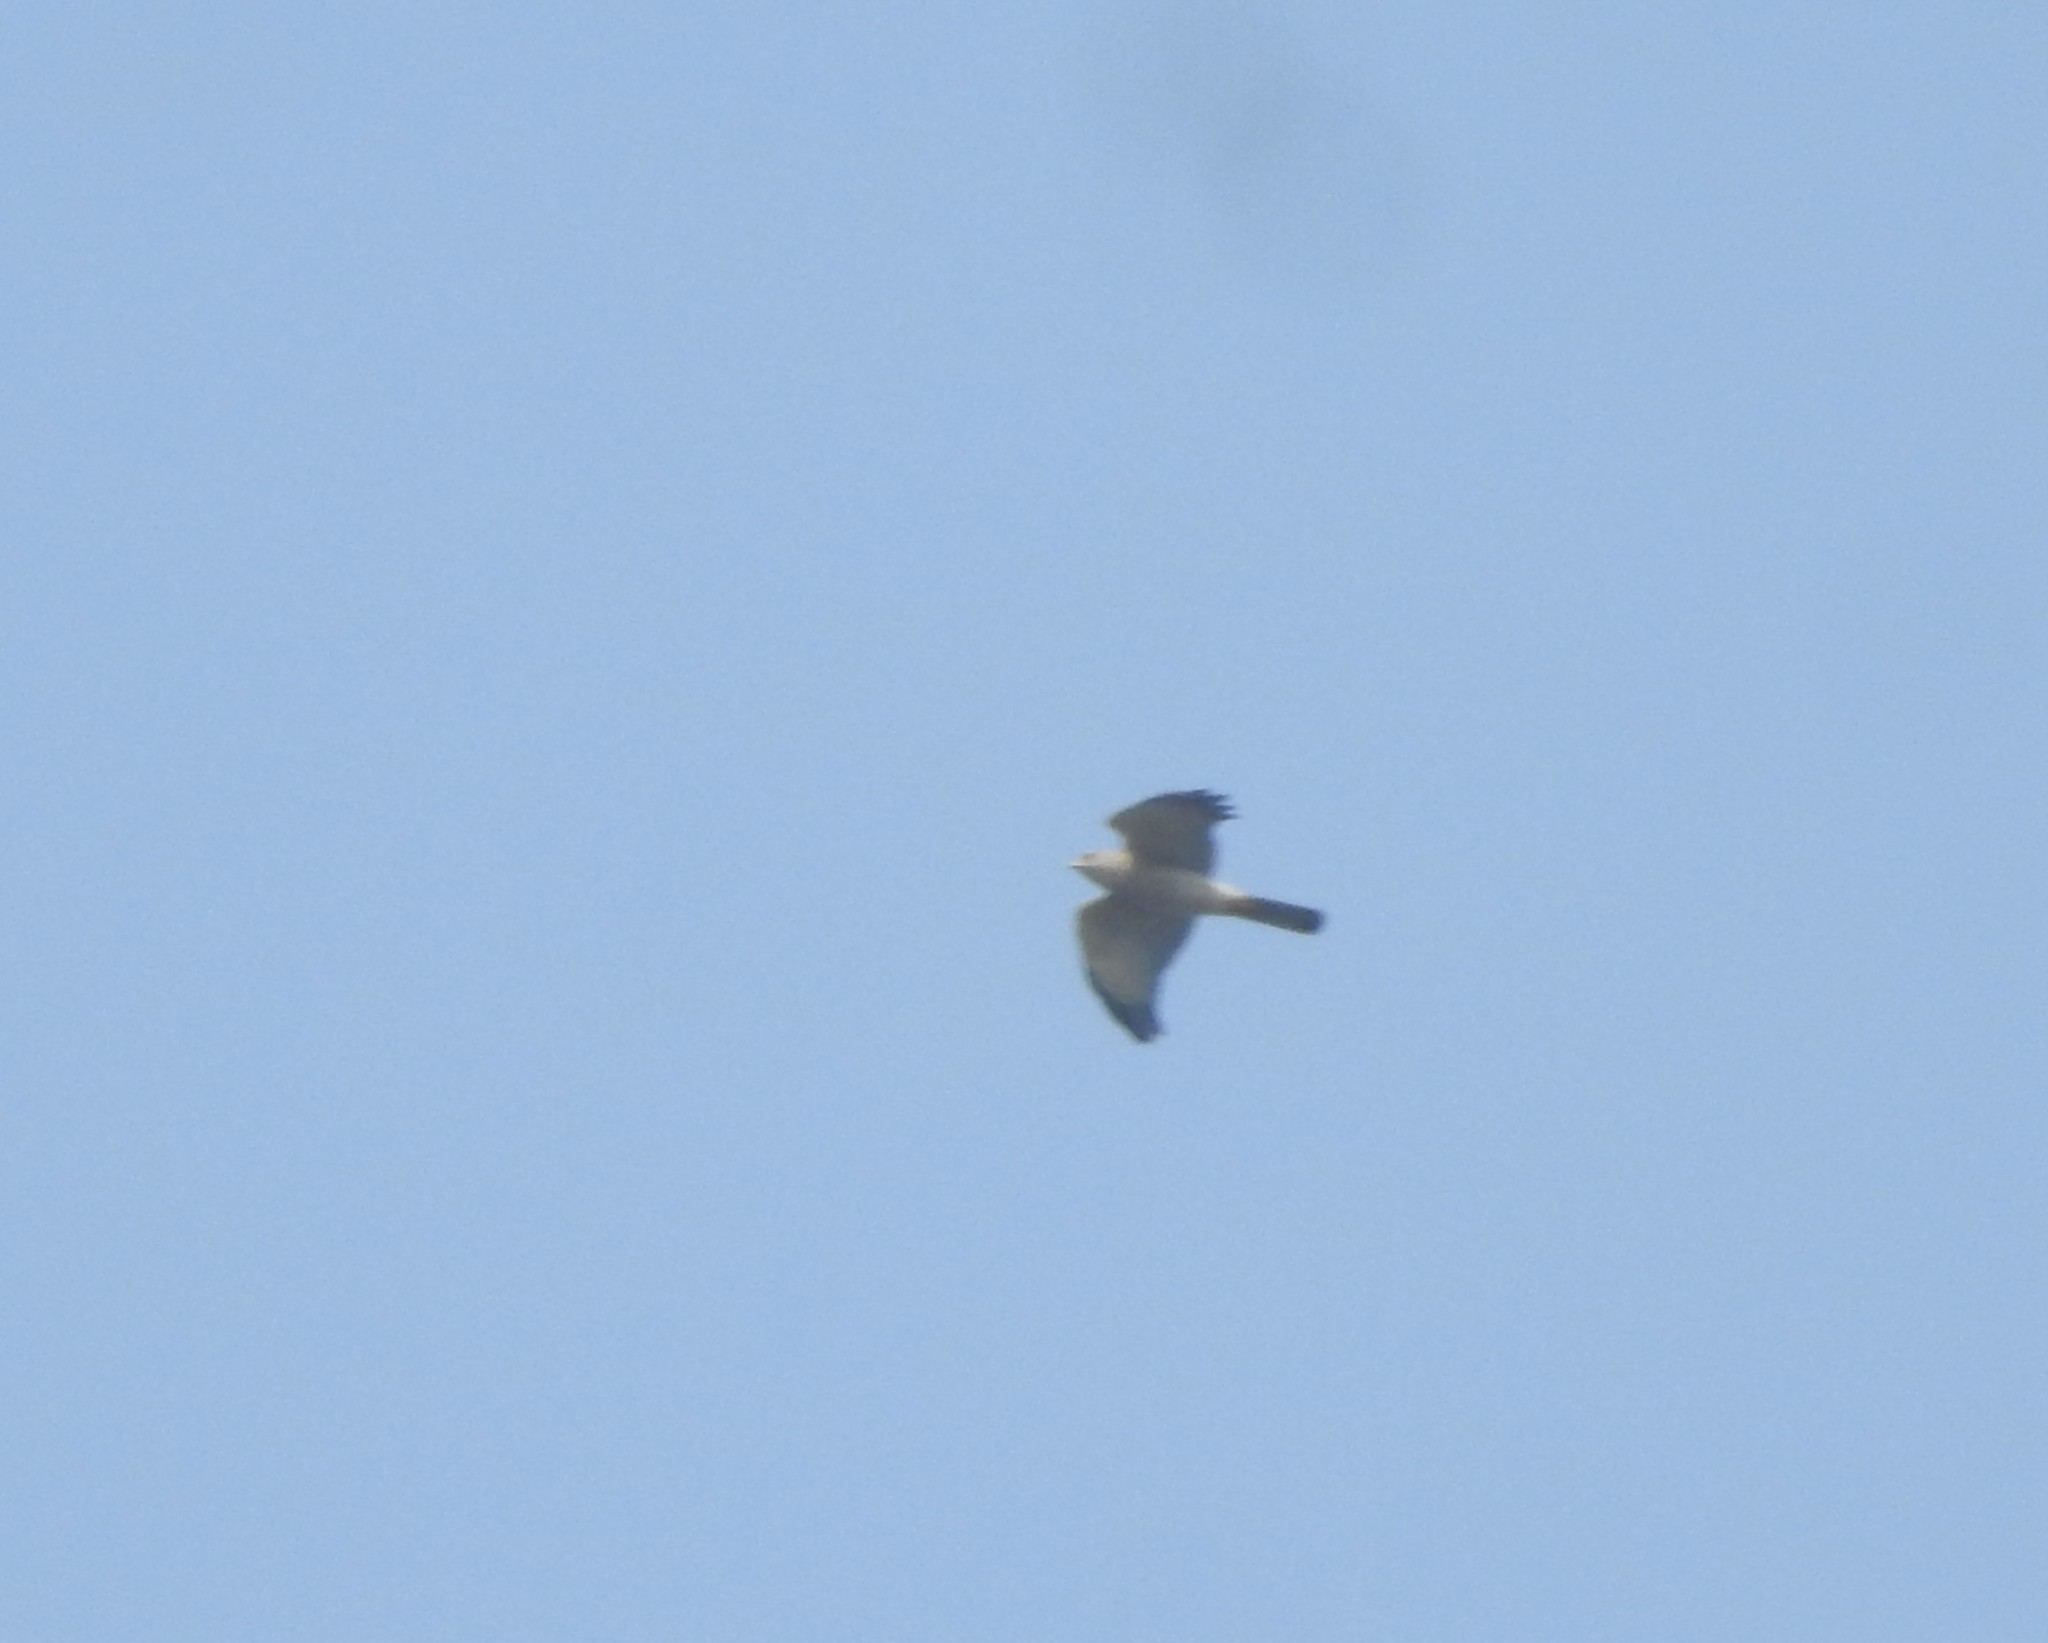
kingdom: Animalia
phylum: Chordata
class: Aves
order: Accipitriformes
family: Accipitridae
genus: Accipiter
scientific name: Accipiter badius
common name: Shikra
